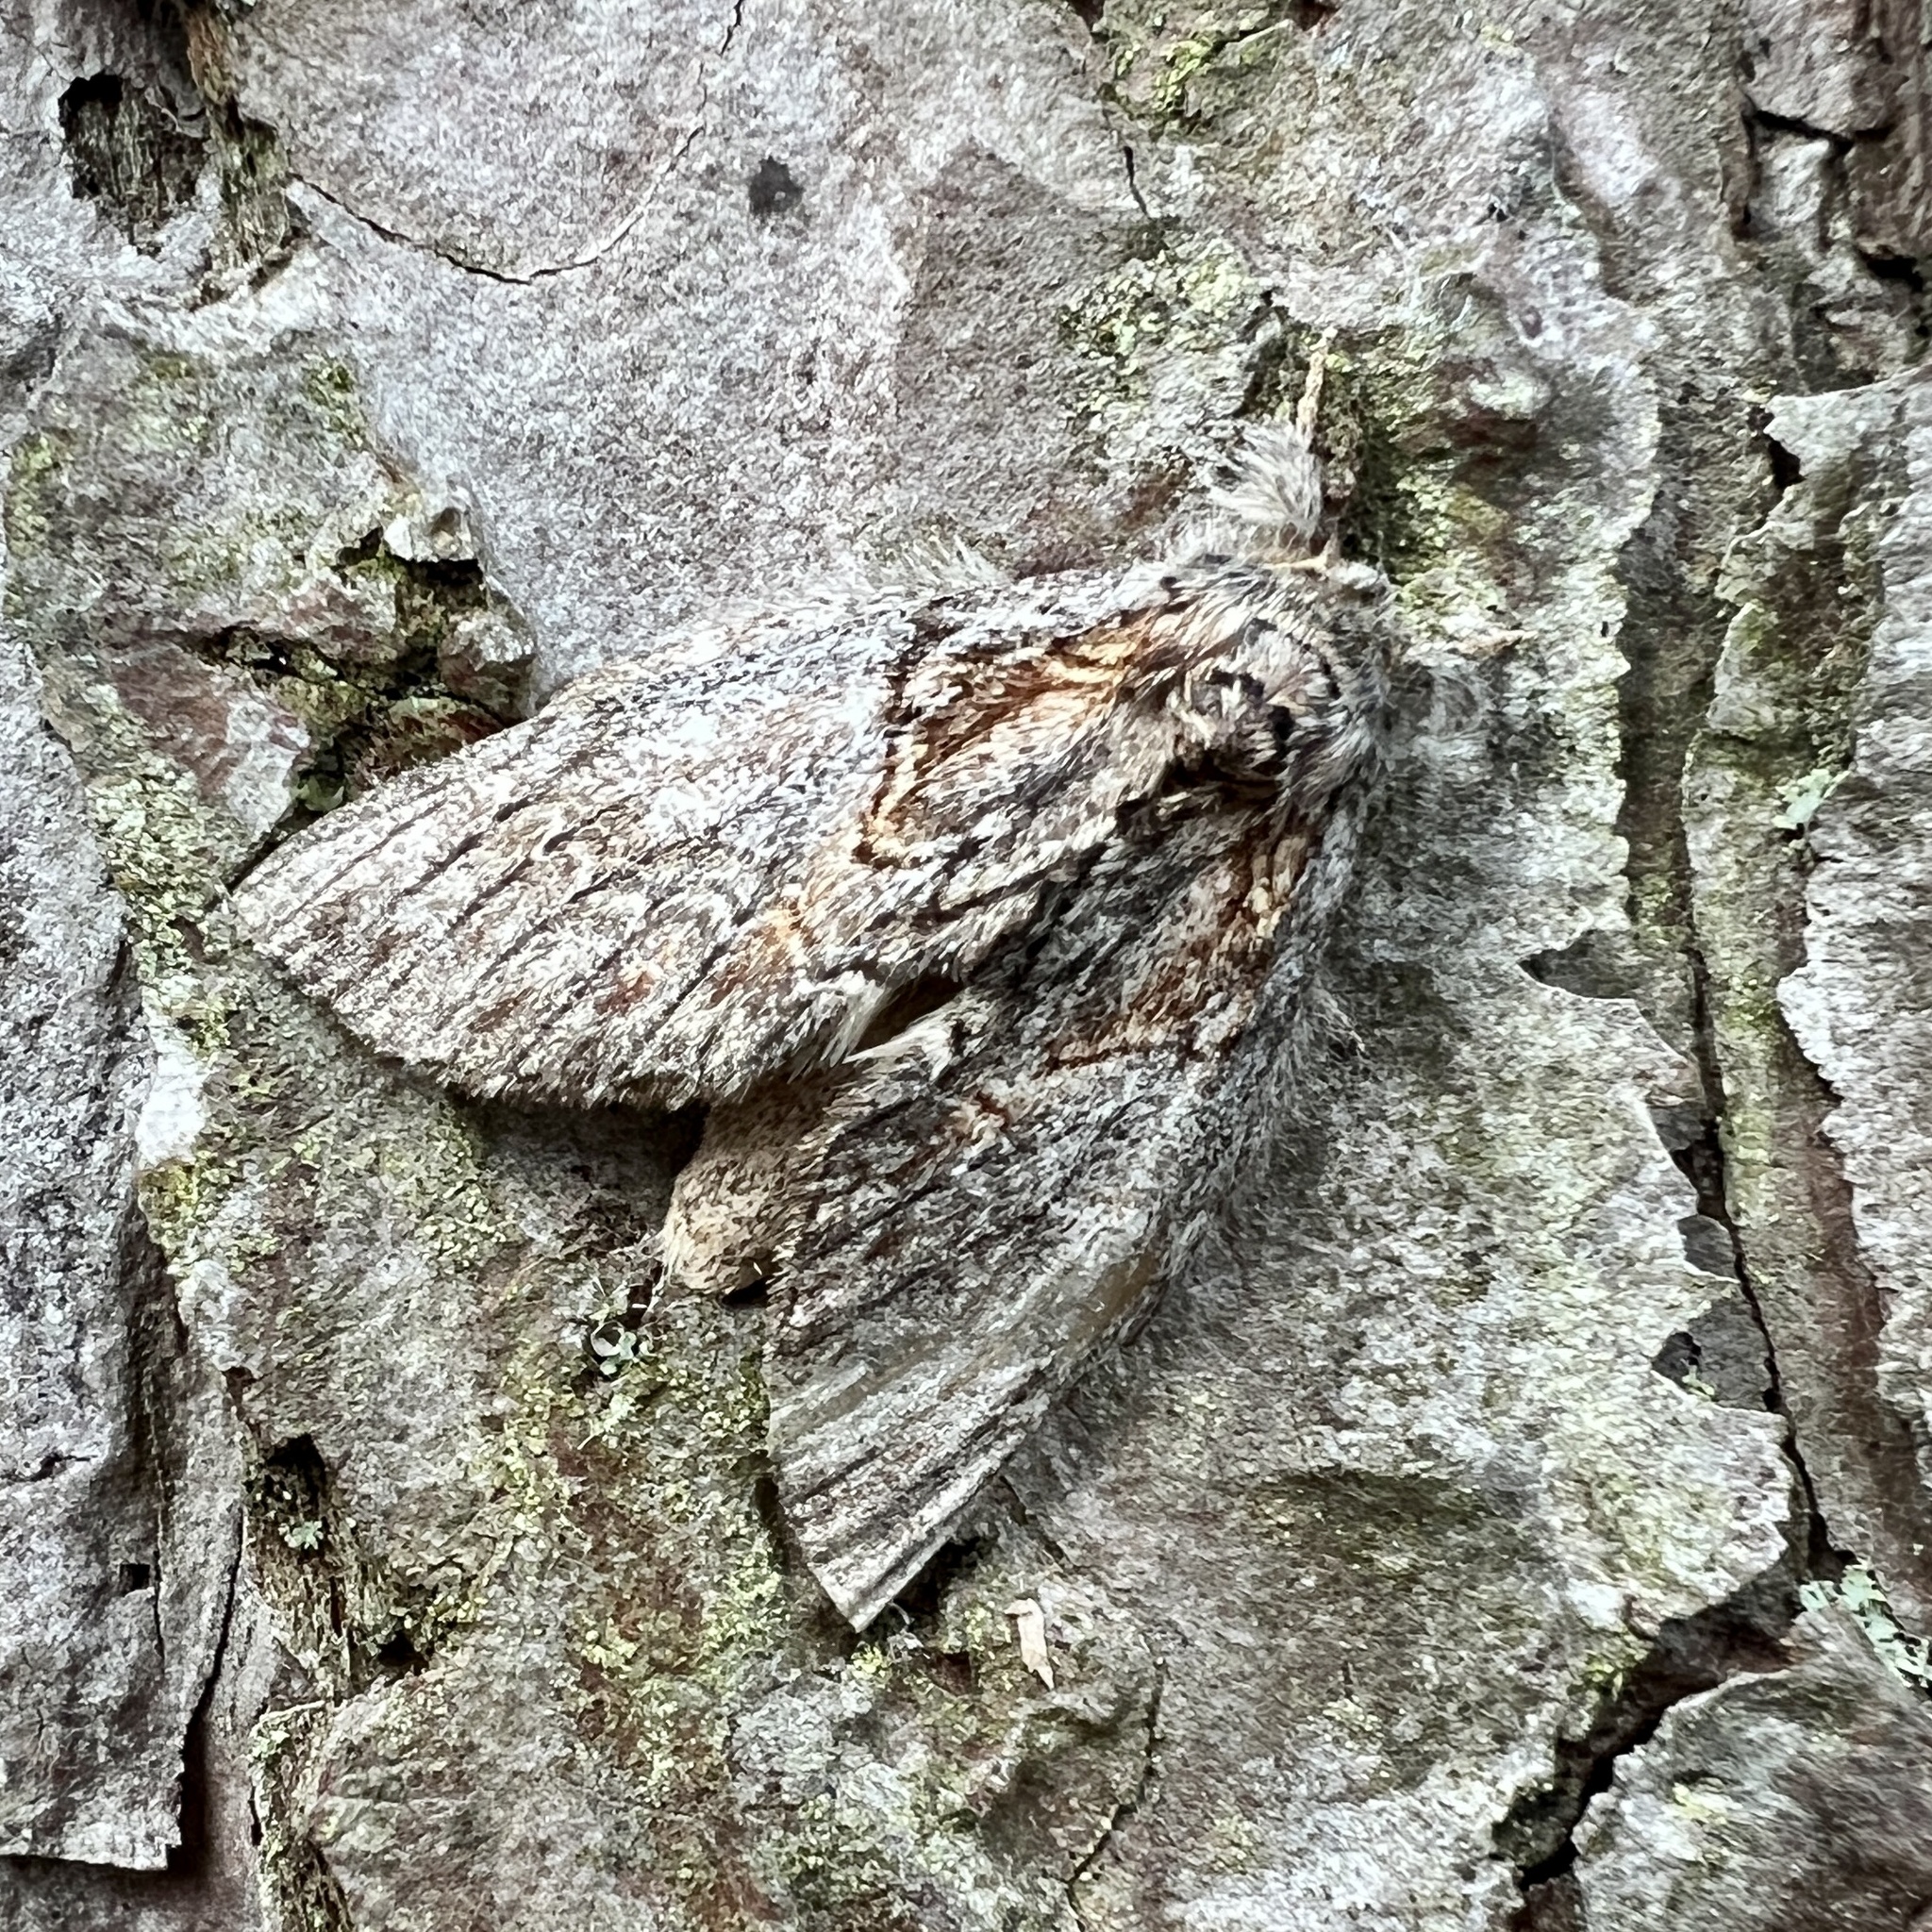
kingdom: Animalia
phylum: Arthropoda
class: Insecta
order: Lepidoptera
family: Notodontidae
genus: Peridea
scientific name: Peridea basitriens
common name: Oval-based prominent
